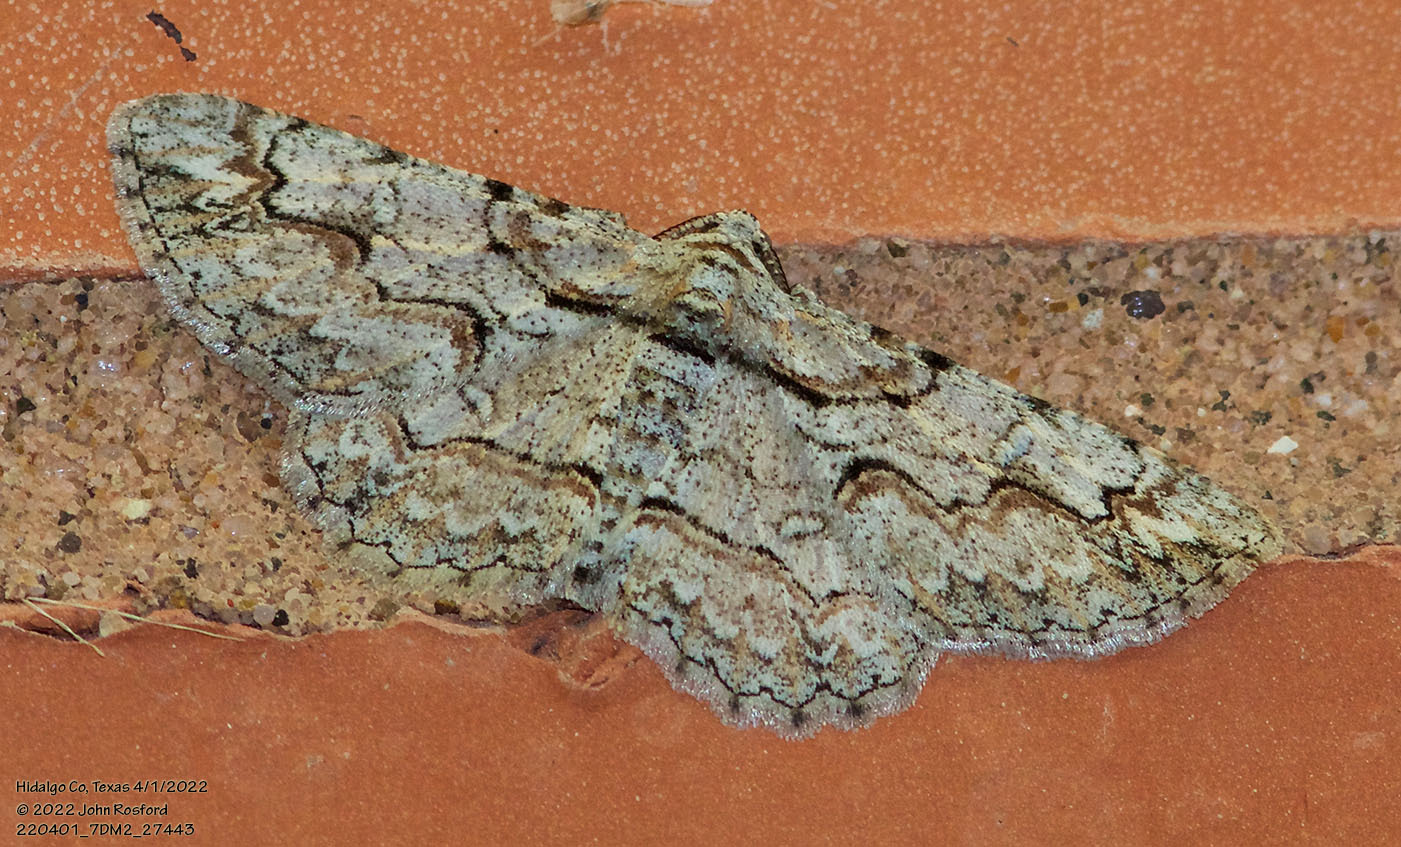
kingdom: Animalia
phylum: Arthropoda
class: Insecta
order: Lepidoptera
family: Geometridae
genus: Iridopsis
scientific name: Iridopsis defectaria
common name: Brown-shaded gray
